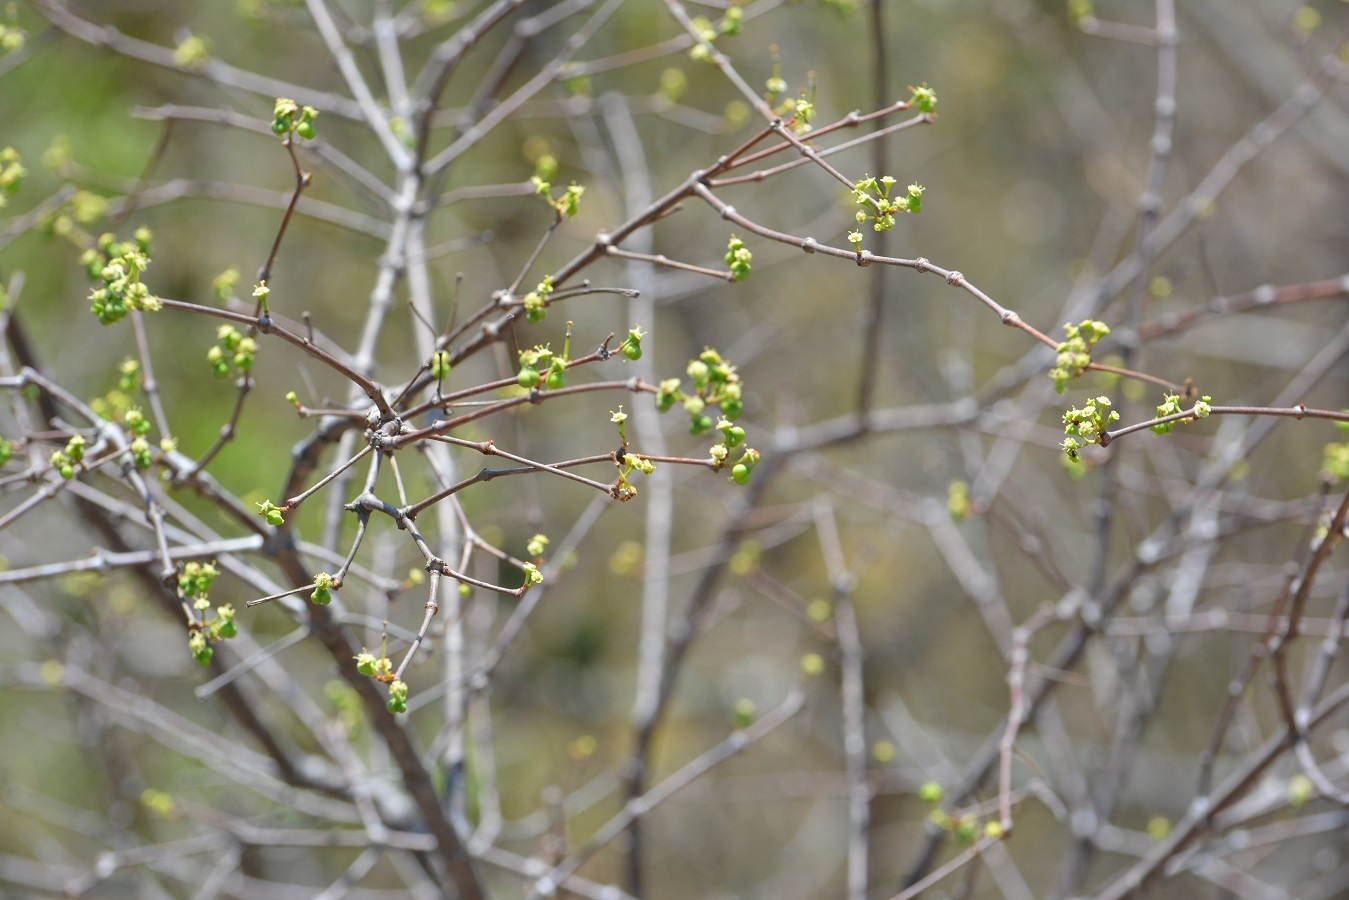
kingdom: Plantae
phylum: Tracheophyta
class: Magnoliopsida
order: Malpighiales
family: Euphorbiaceae
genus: Euphorbia
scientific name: Euphorbia schlechtendalii
